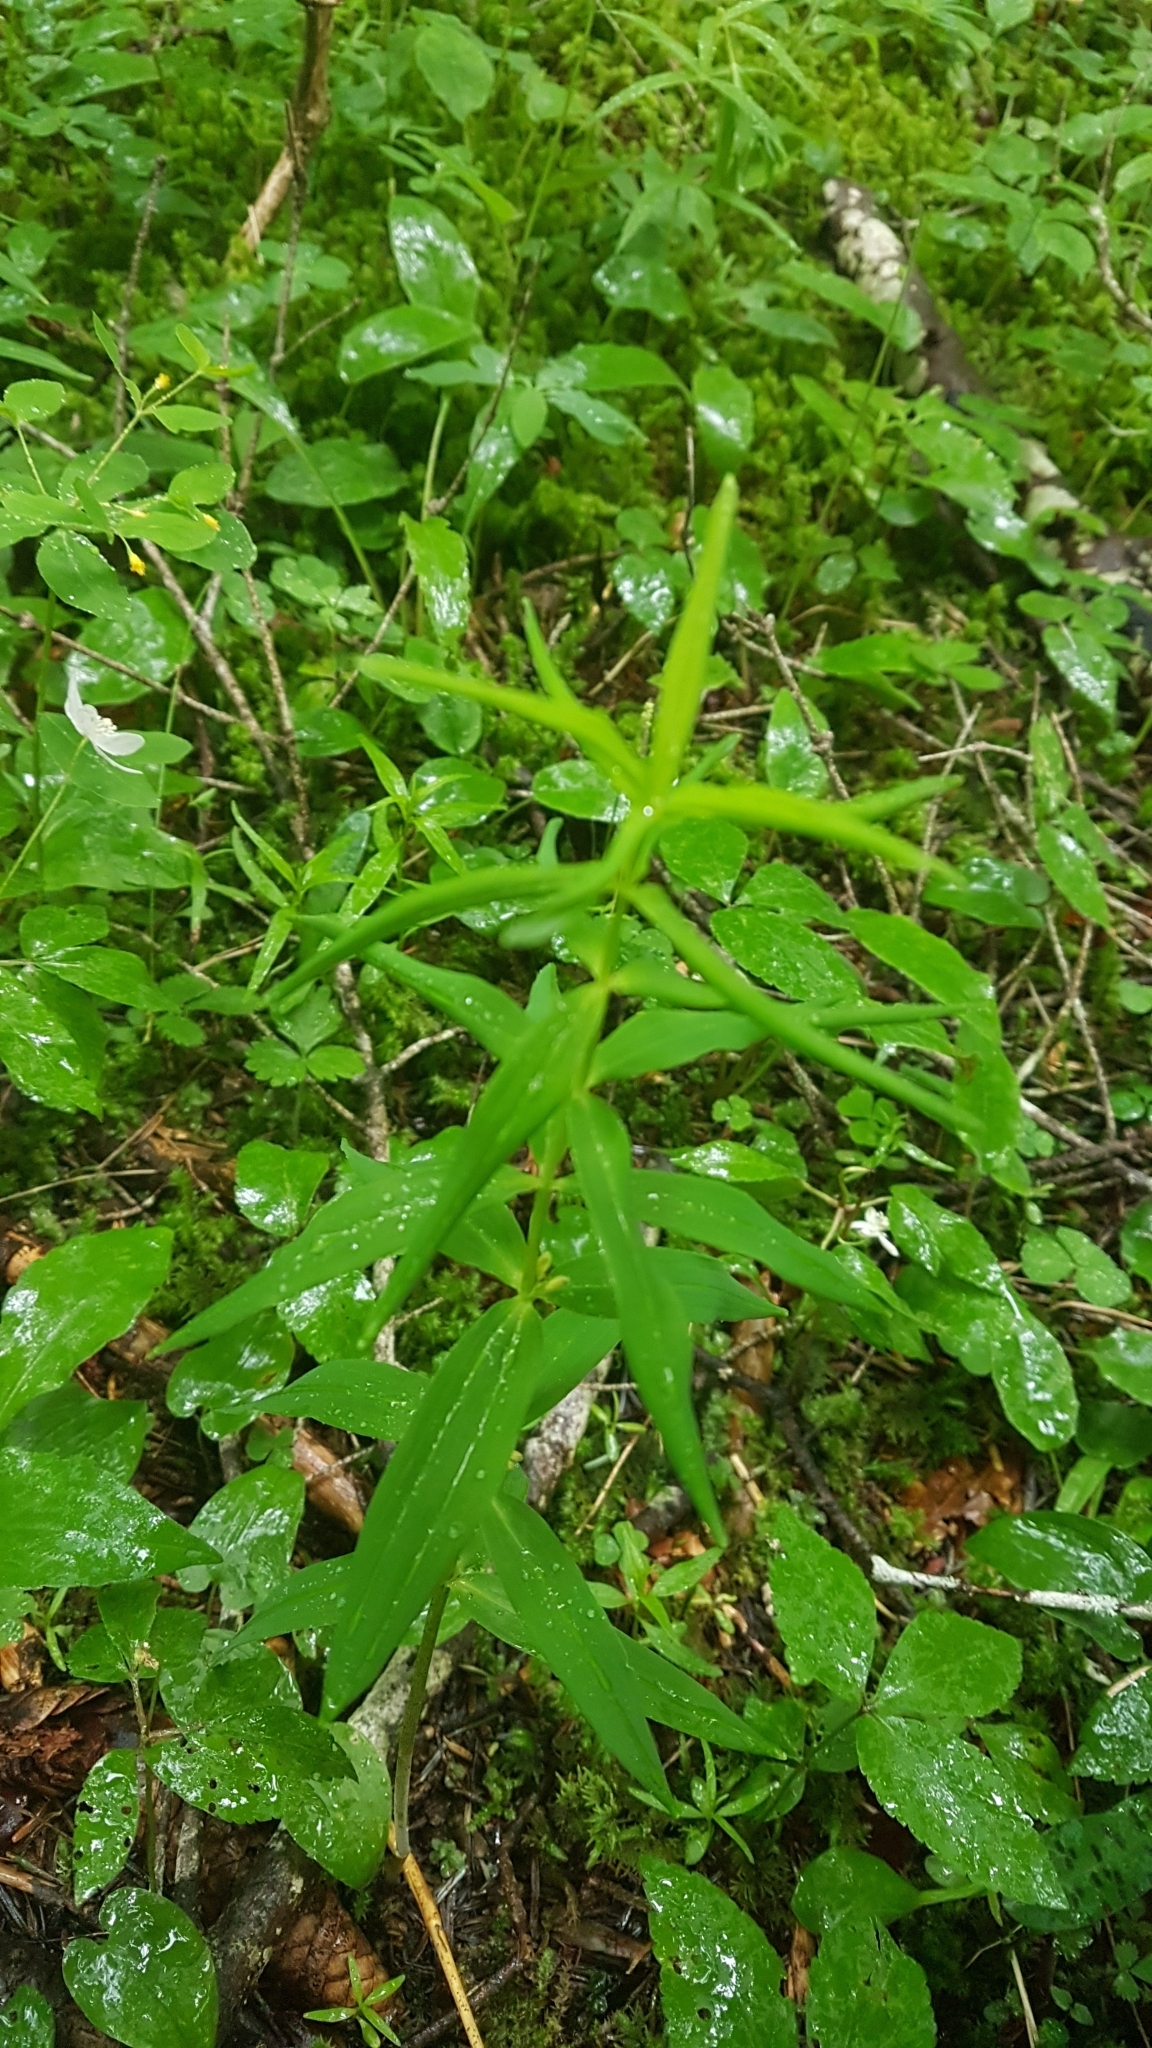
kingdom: Plantae
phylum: Tracheophyta
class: Liliopsida
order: Asparagales
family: Asparagaceae
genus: Polygonatum
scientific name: Polygonatum verticillatum
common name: Whorled solomon's-seal
